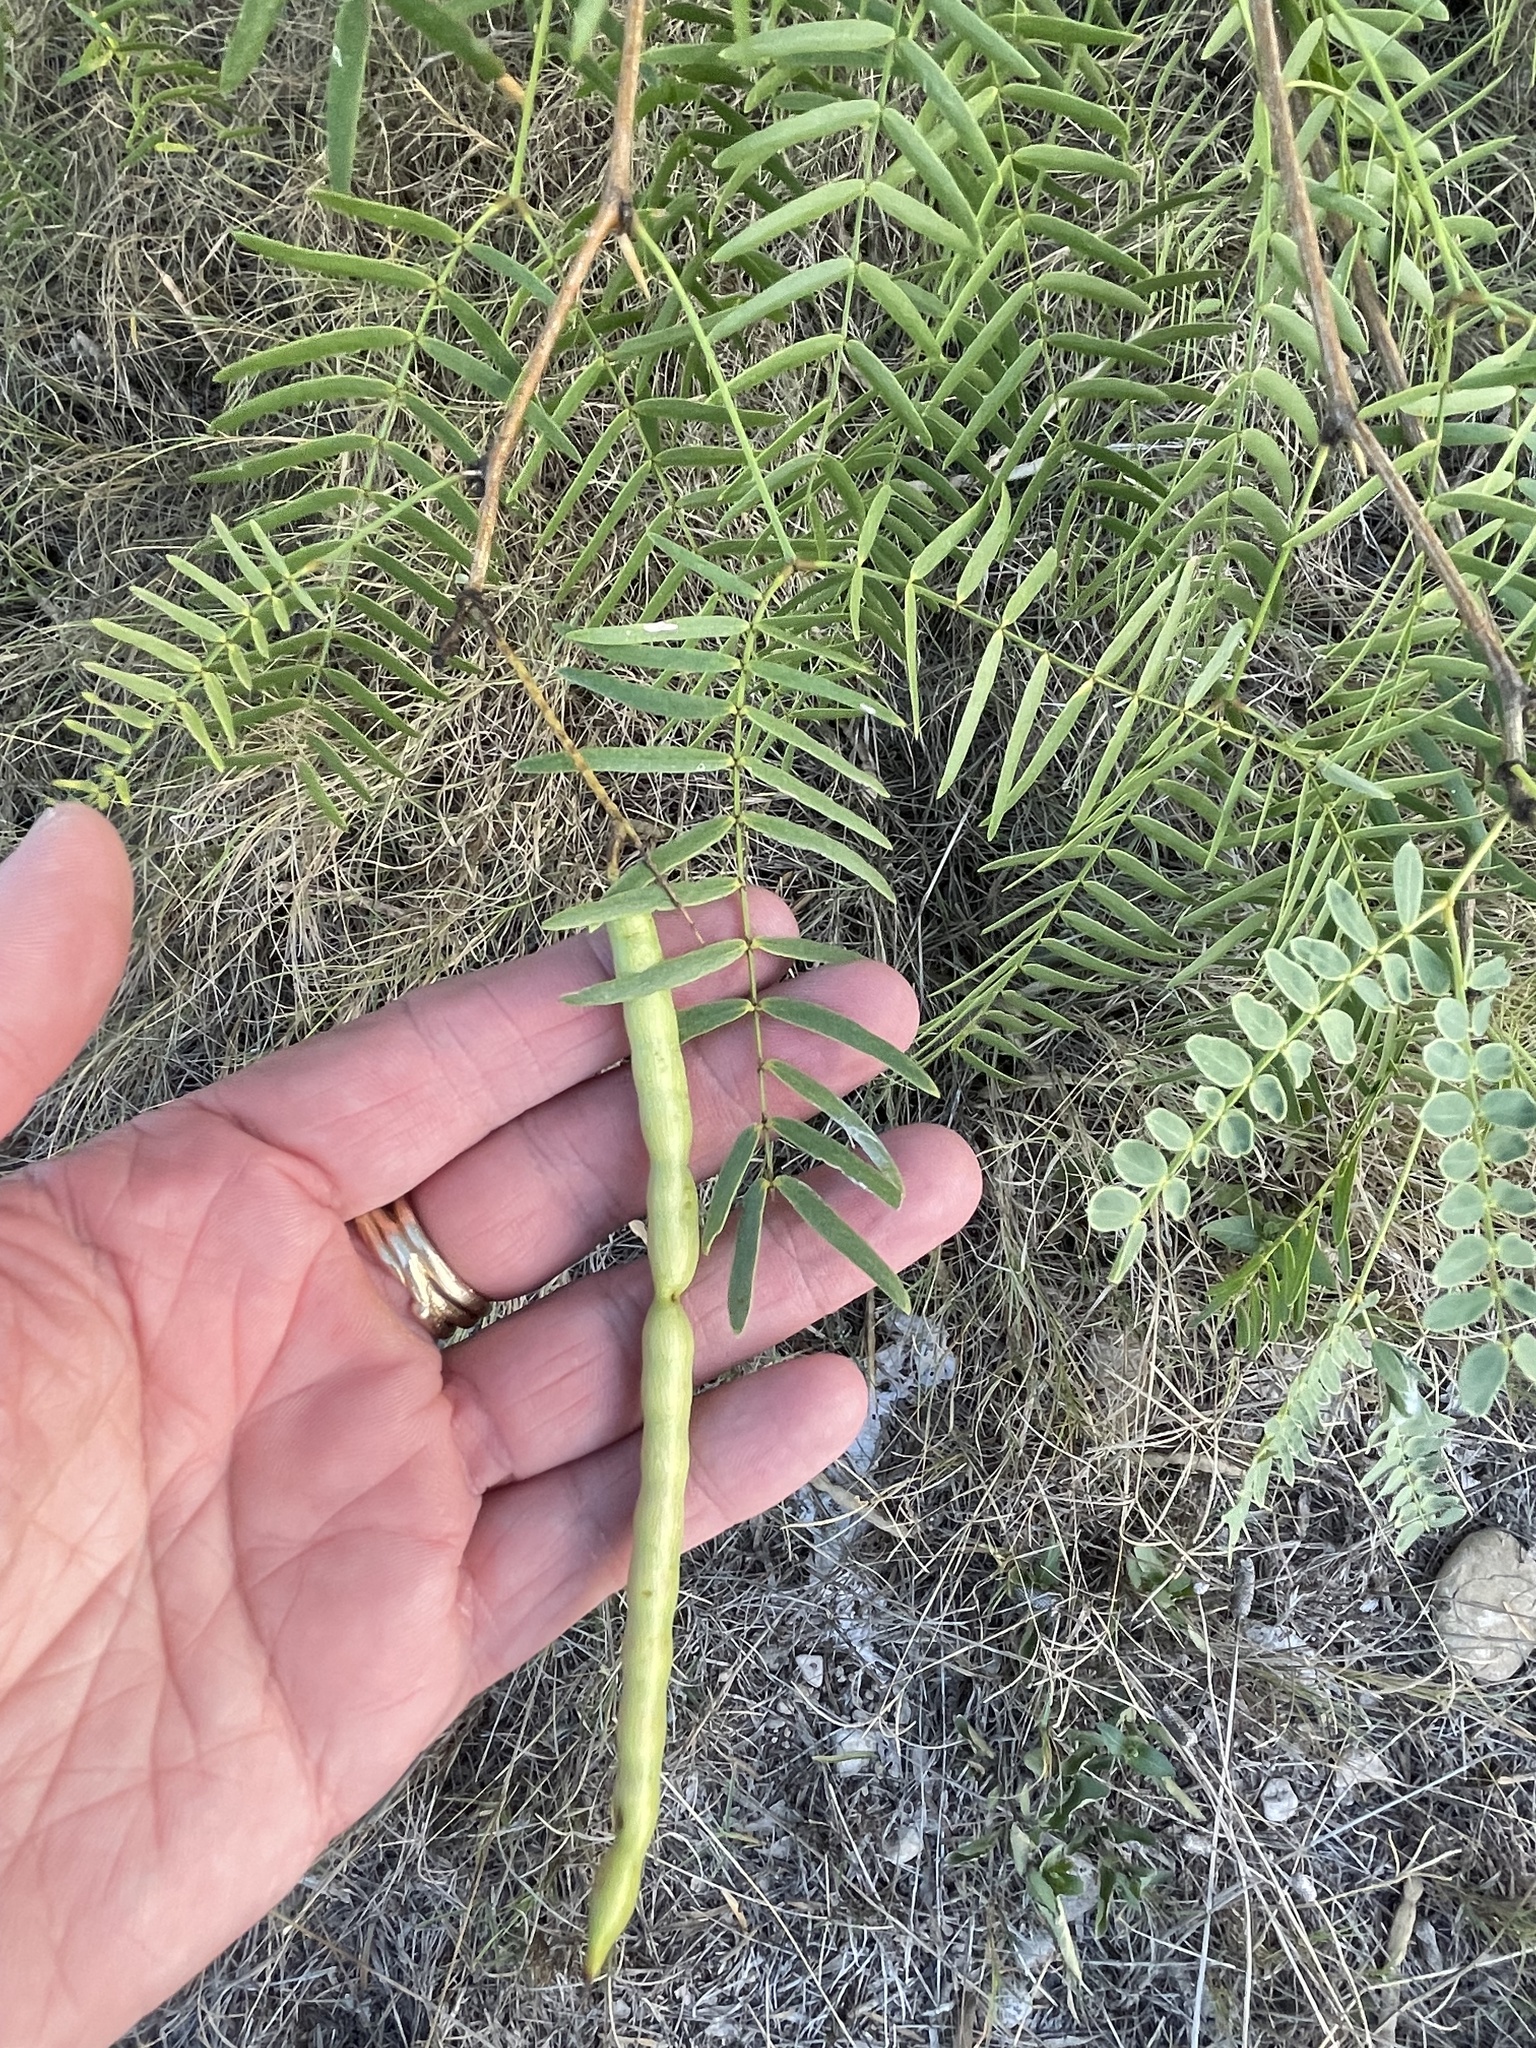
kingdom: Plantae
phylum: Tracheophyta
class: Magnoliopsida
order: Fabales
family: Fabaceae
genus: Prosopis
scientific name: Prosopis glandulosa
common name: Honey mesquite
